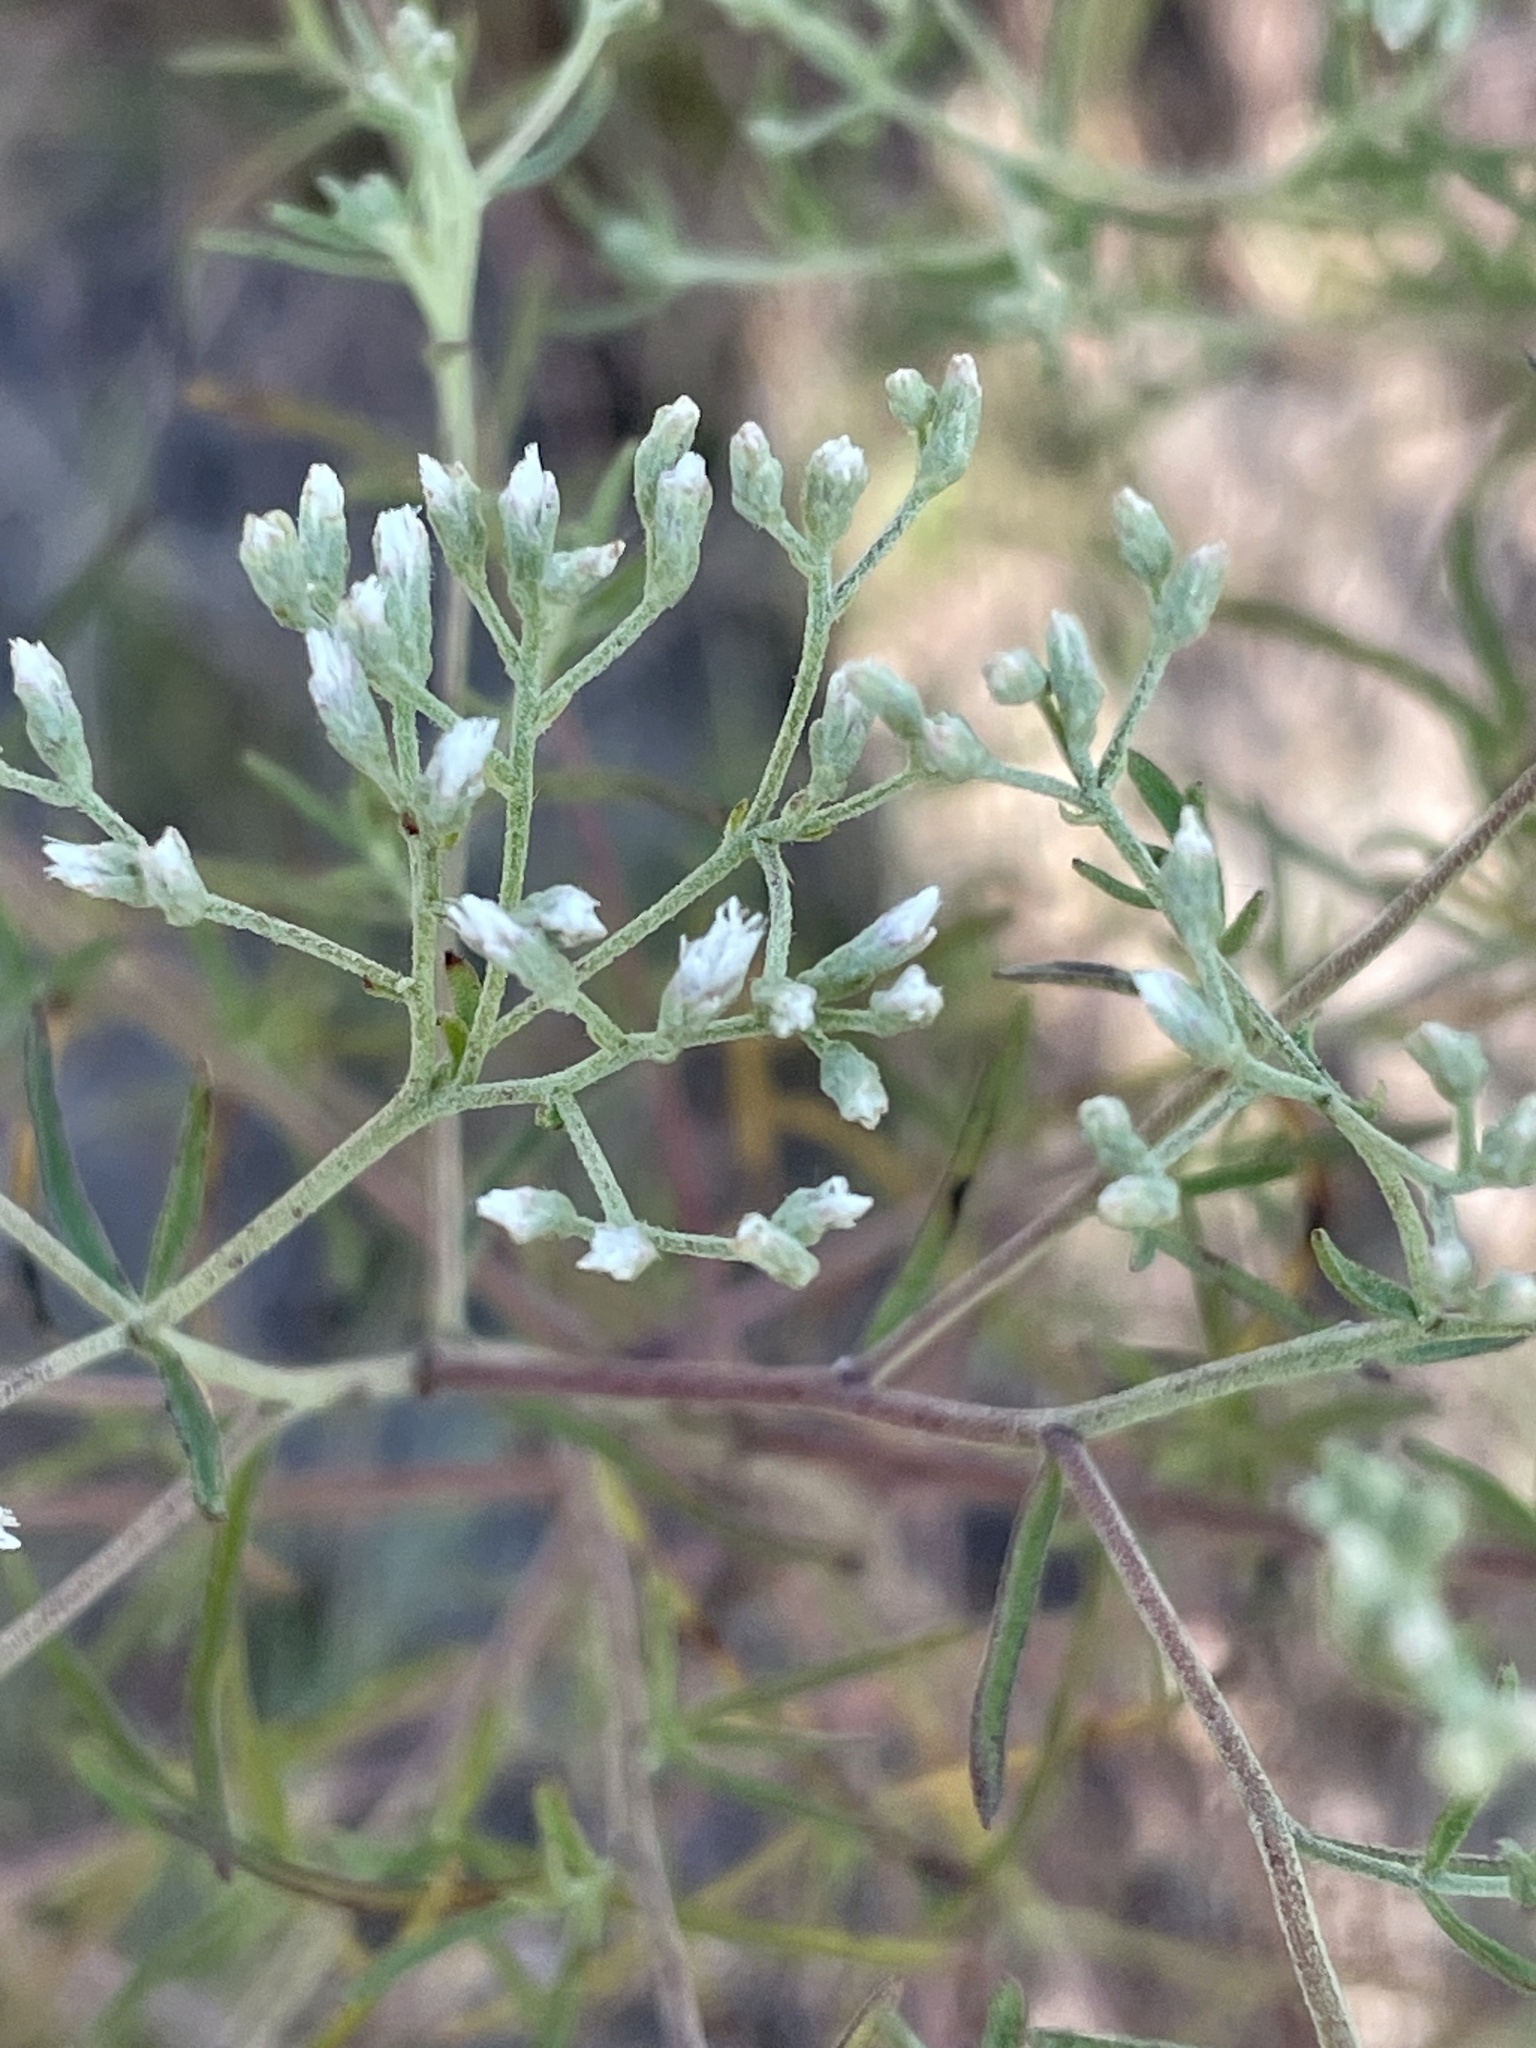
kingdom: Plantae
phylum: Tracheophyta
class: Magnoliopsida
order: Asterales
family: Asteraceae
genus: Eupatorium
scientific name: Eupatorium hyssopifolium
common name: Hyssop-leaf thoroughwort
